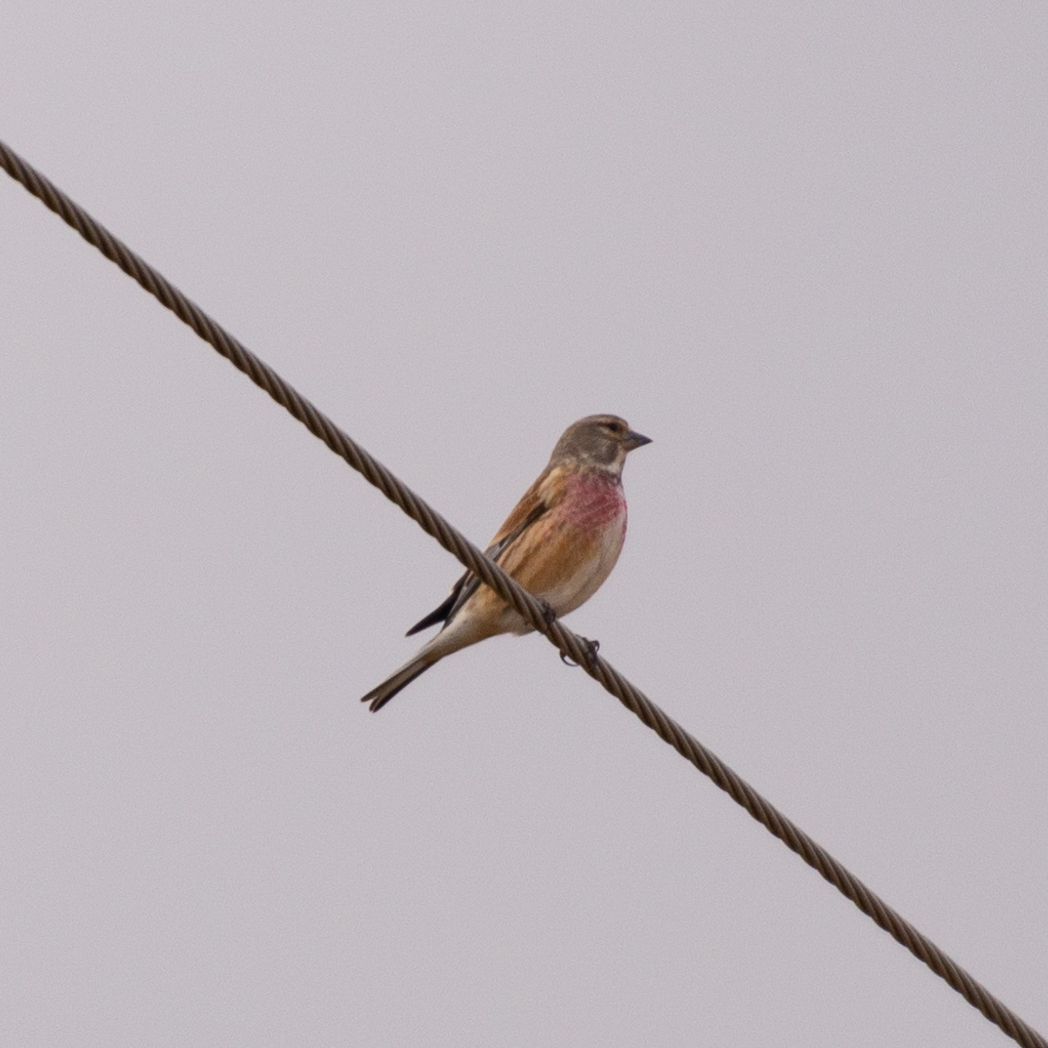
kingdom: Animalia
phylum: Chordata
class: Aves
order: Passeriformes
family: Fringillidae
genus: Linaria
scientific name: Linaria cannabina
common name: Common linnet
